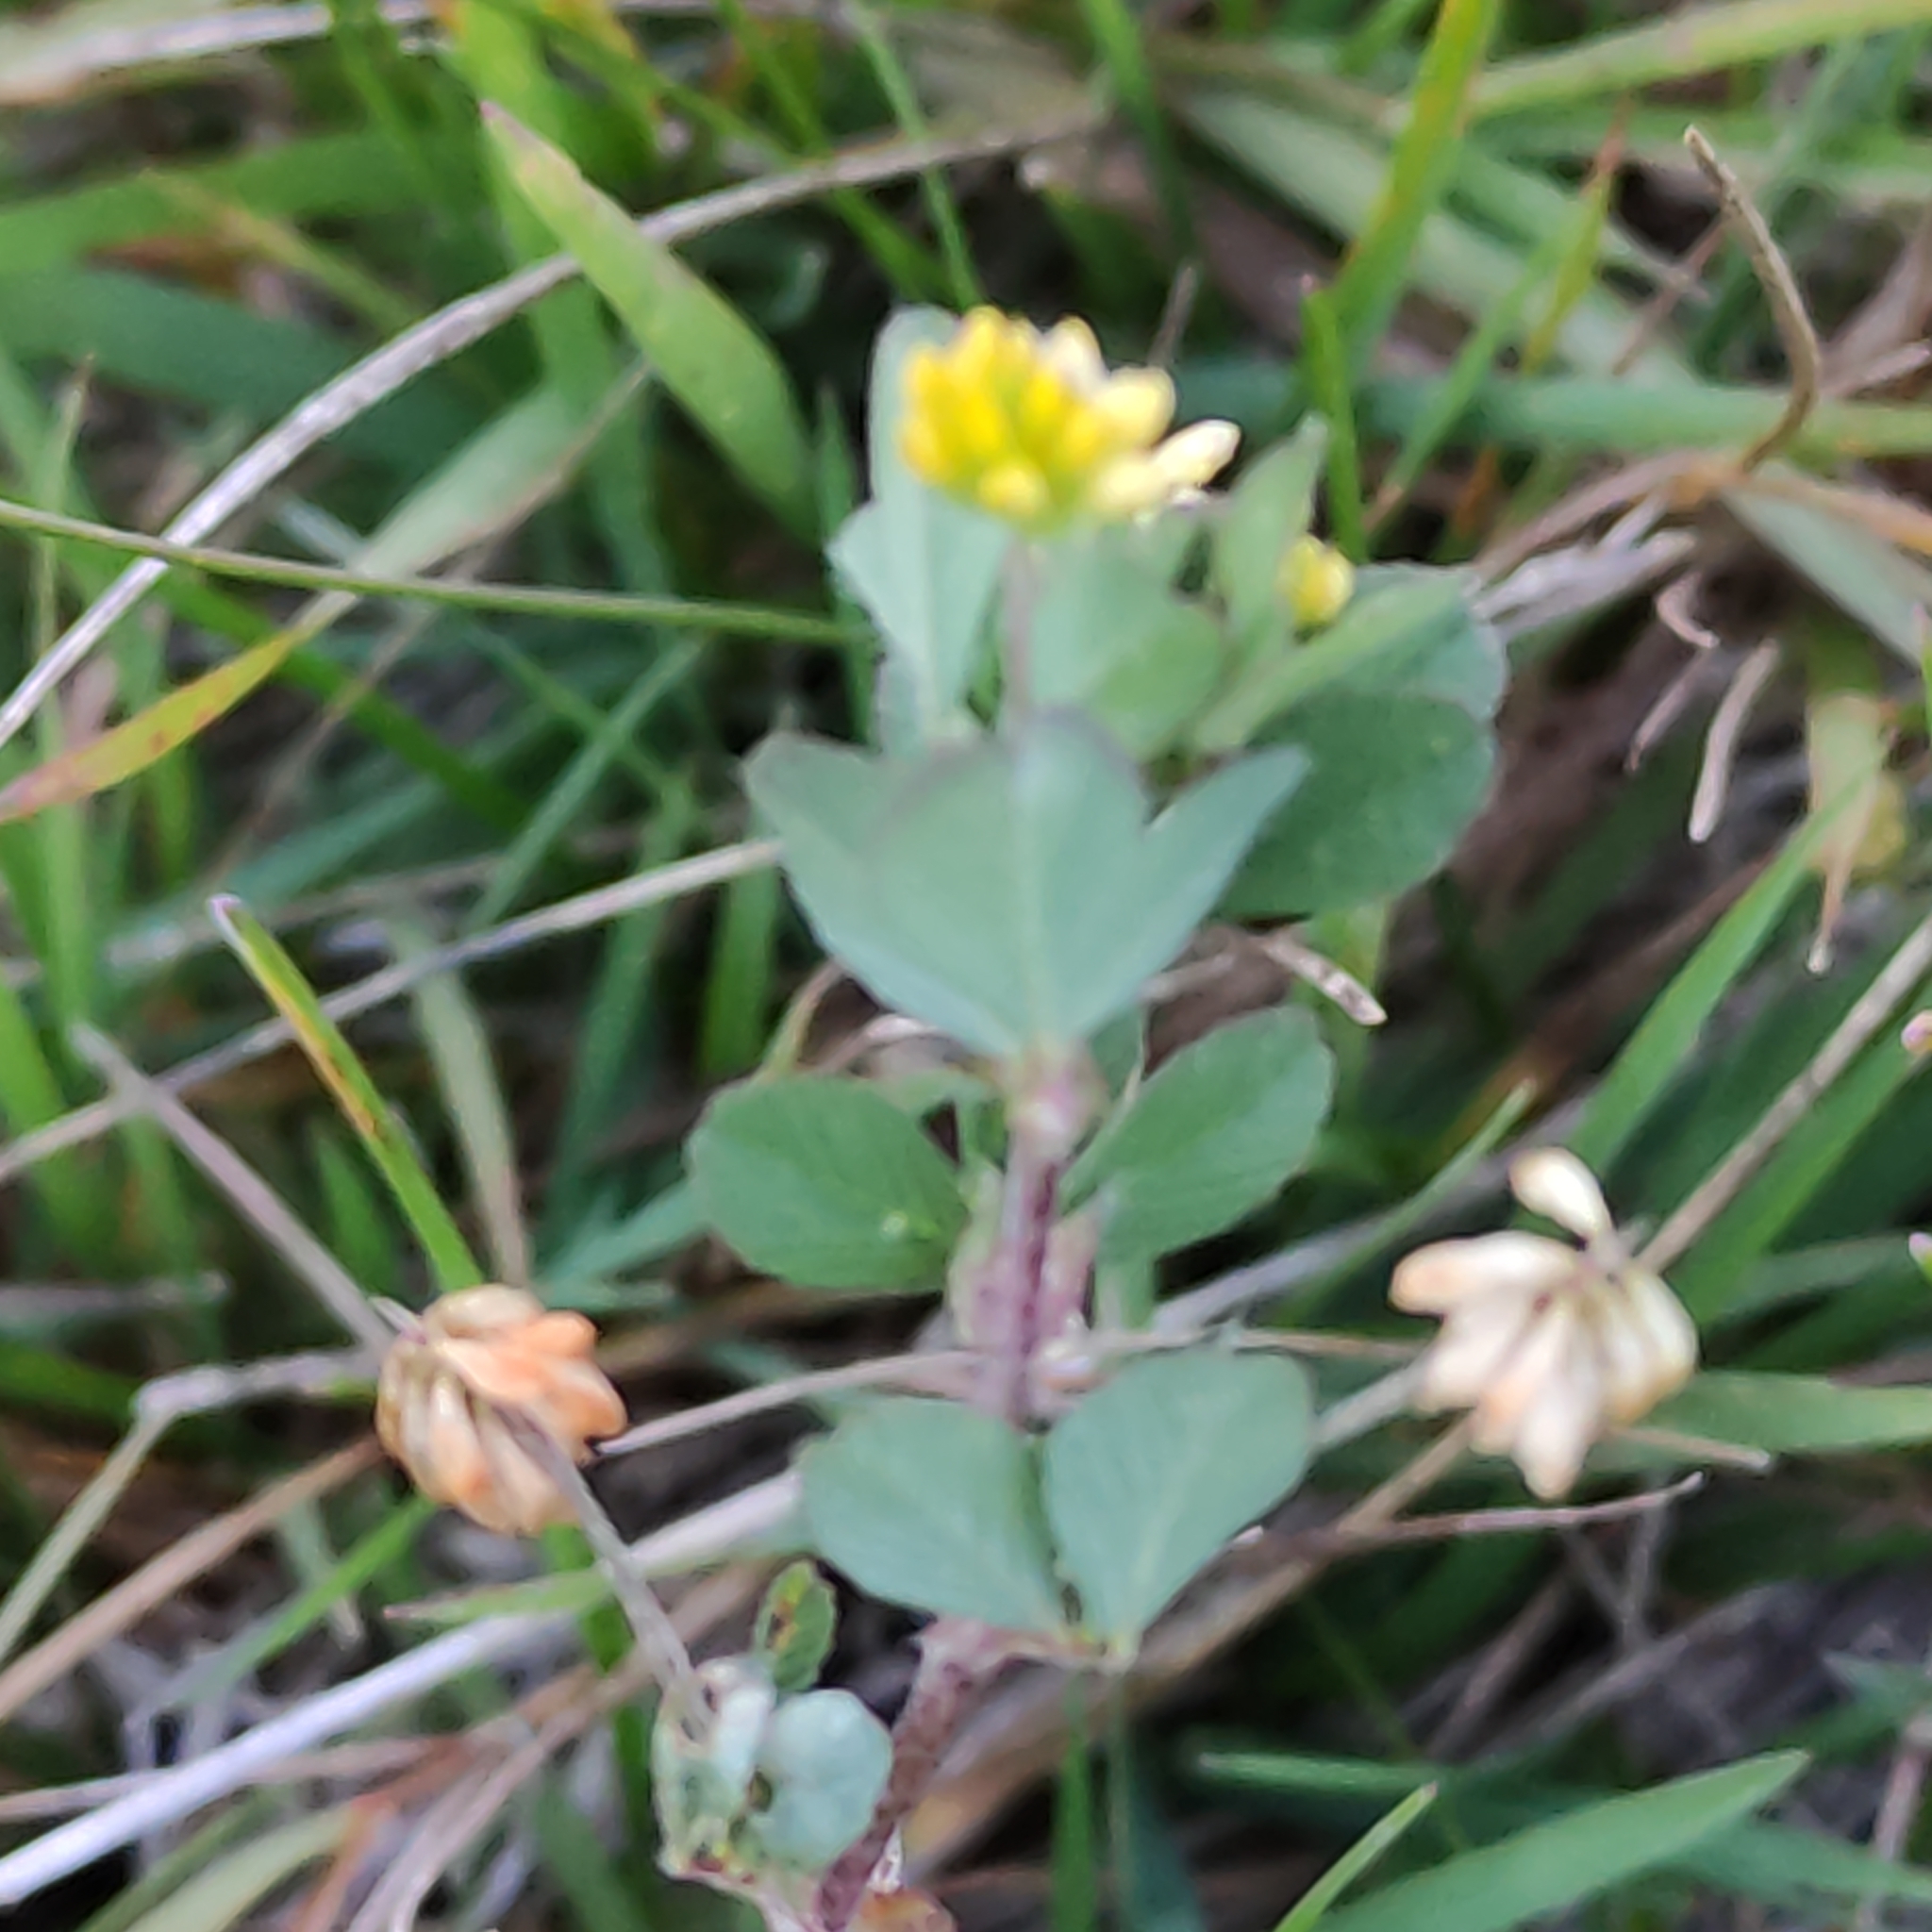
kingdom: Plantae
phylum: Tracheophyta
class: Magnoliopsida
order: Fabales
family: Fabaceae
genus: Trifolium
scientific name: Trifolium dubium
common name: Suckling clover
